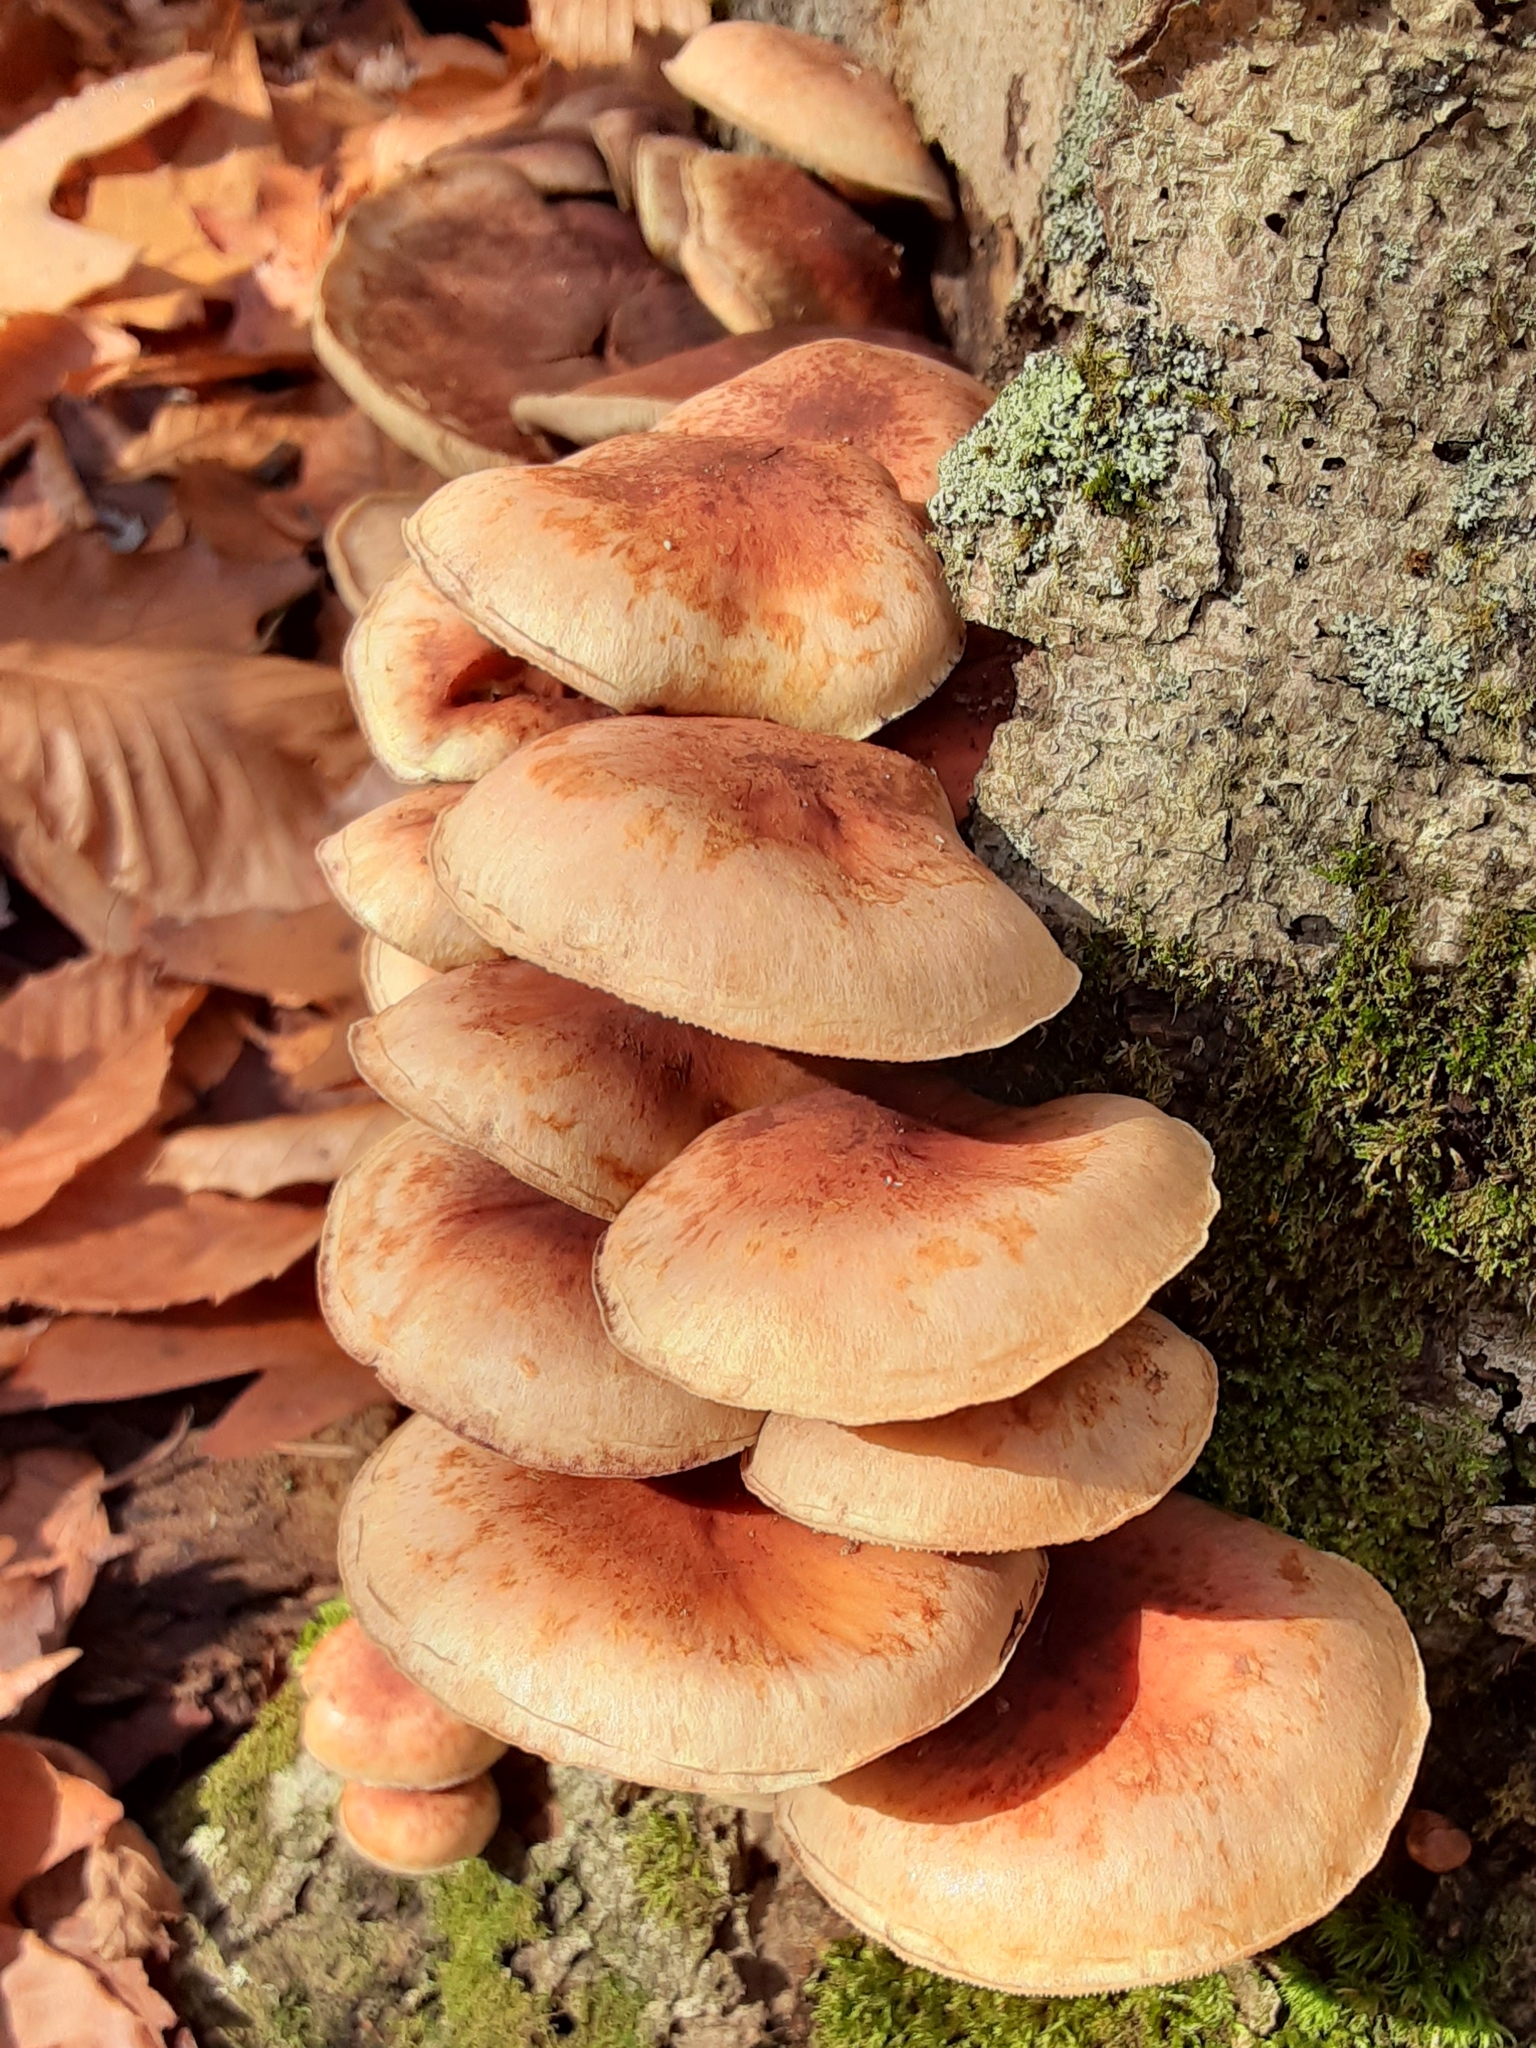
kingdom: Fungi
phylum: Basidiomycota
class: Agaricomycetes
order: Agaricales
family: Strophariaceae
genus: Hypholoma
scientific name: Hypholoma lateritium
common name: Brick caps
